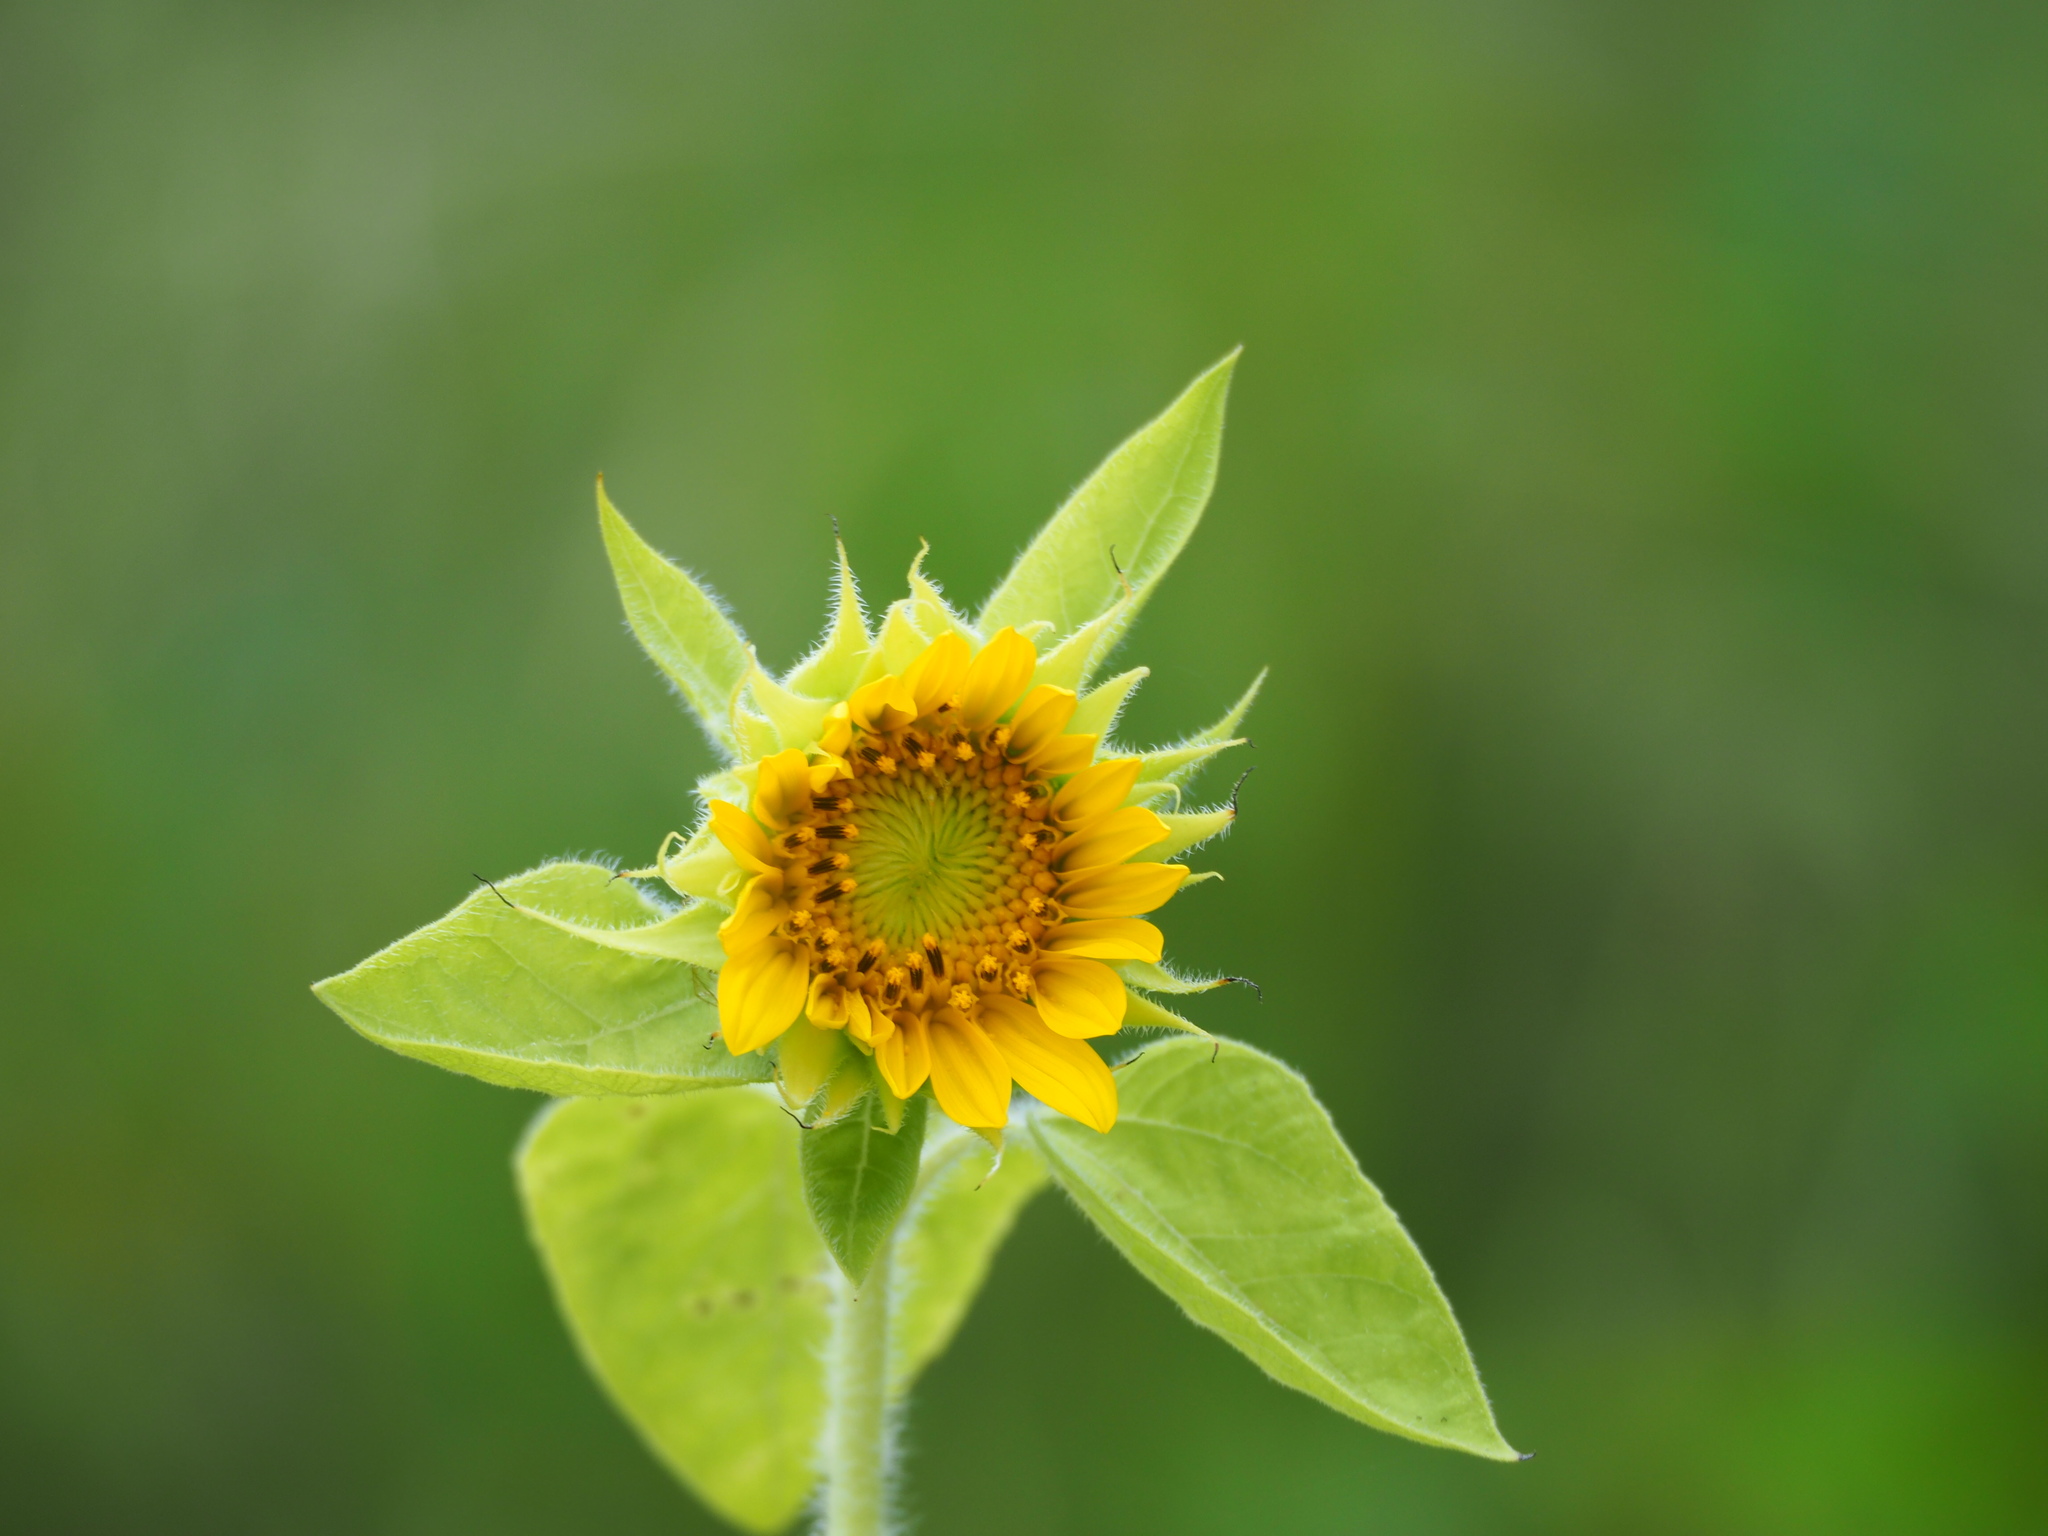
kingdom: Plantae
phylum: Tracheophyta
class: Magnoliopsida
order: Asterales
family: Asteraceae
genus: Helianthus
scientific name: Helianthus annuus
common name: Sunflower
